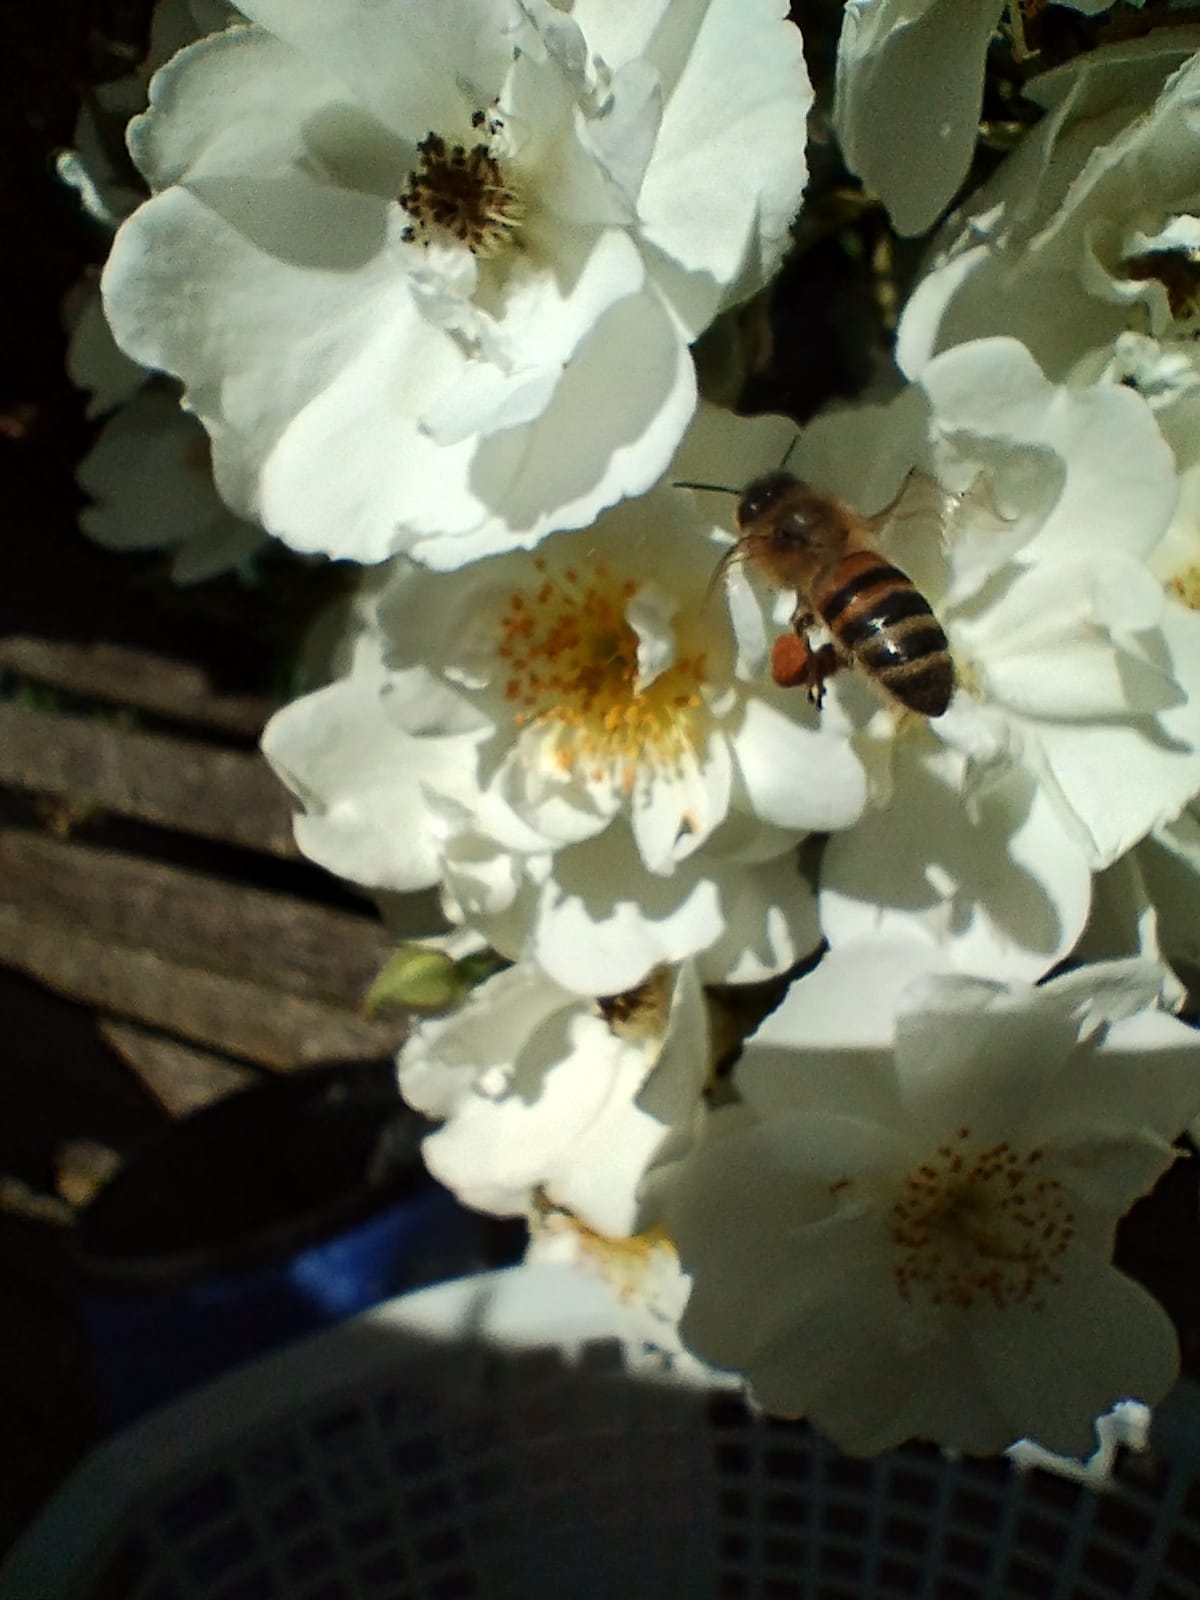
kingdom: Animalia
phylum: Arthropoda
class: Insecta
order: Hymenoptera
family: Apidae
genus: Apis
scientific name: Apis mellifera
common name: Honey bee
